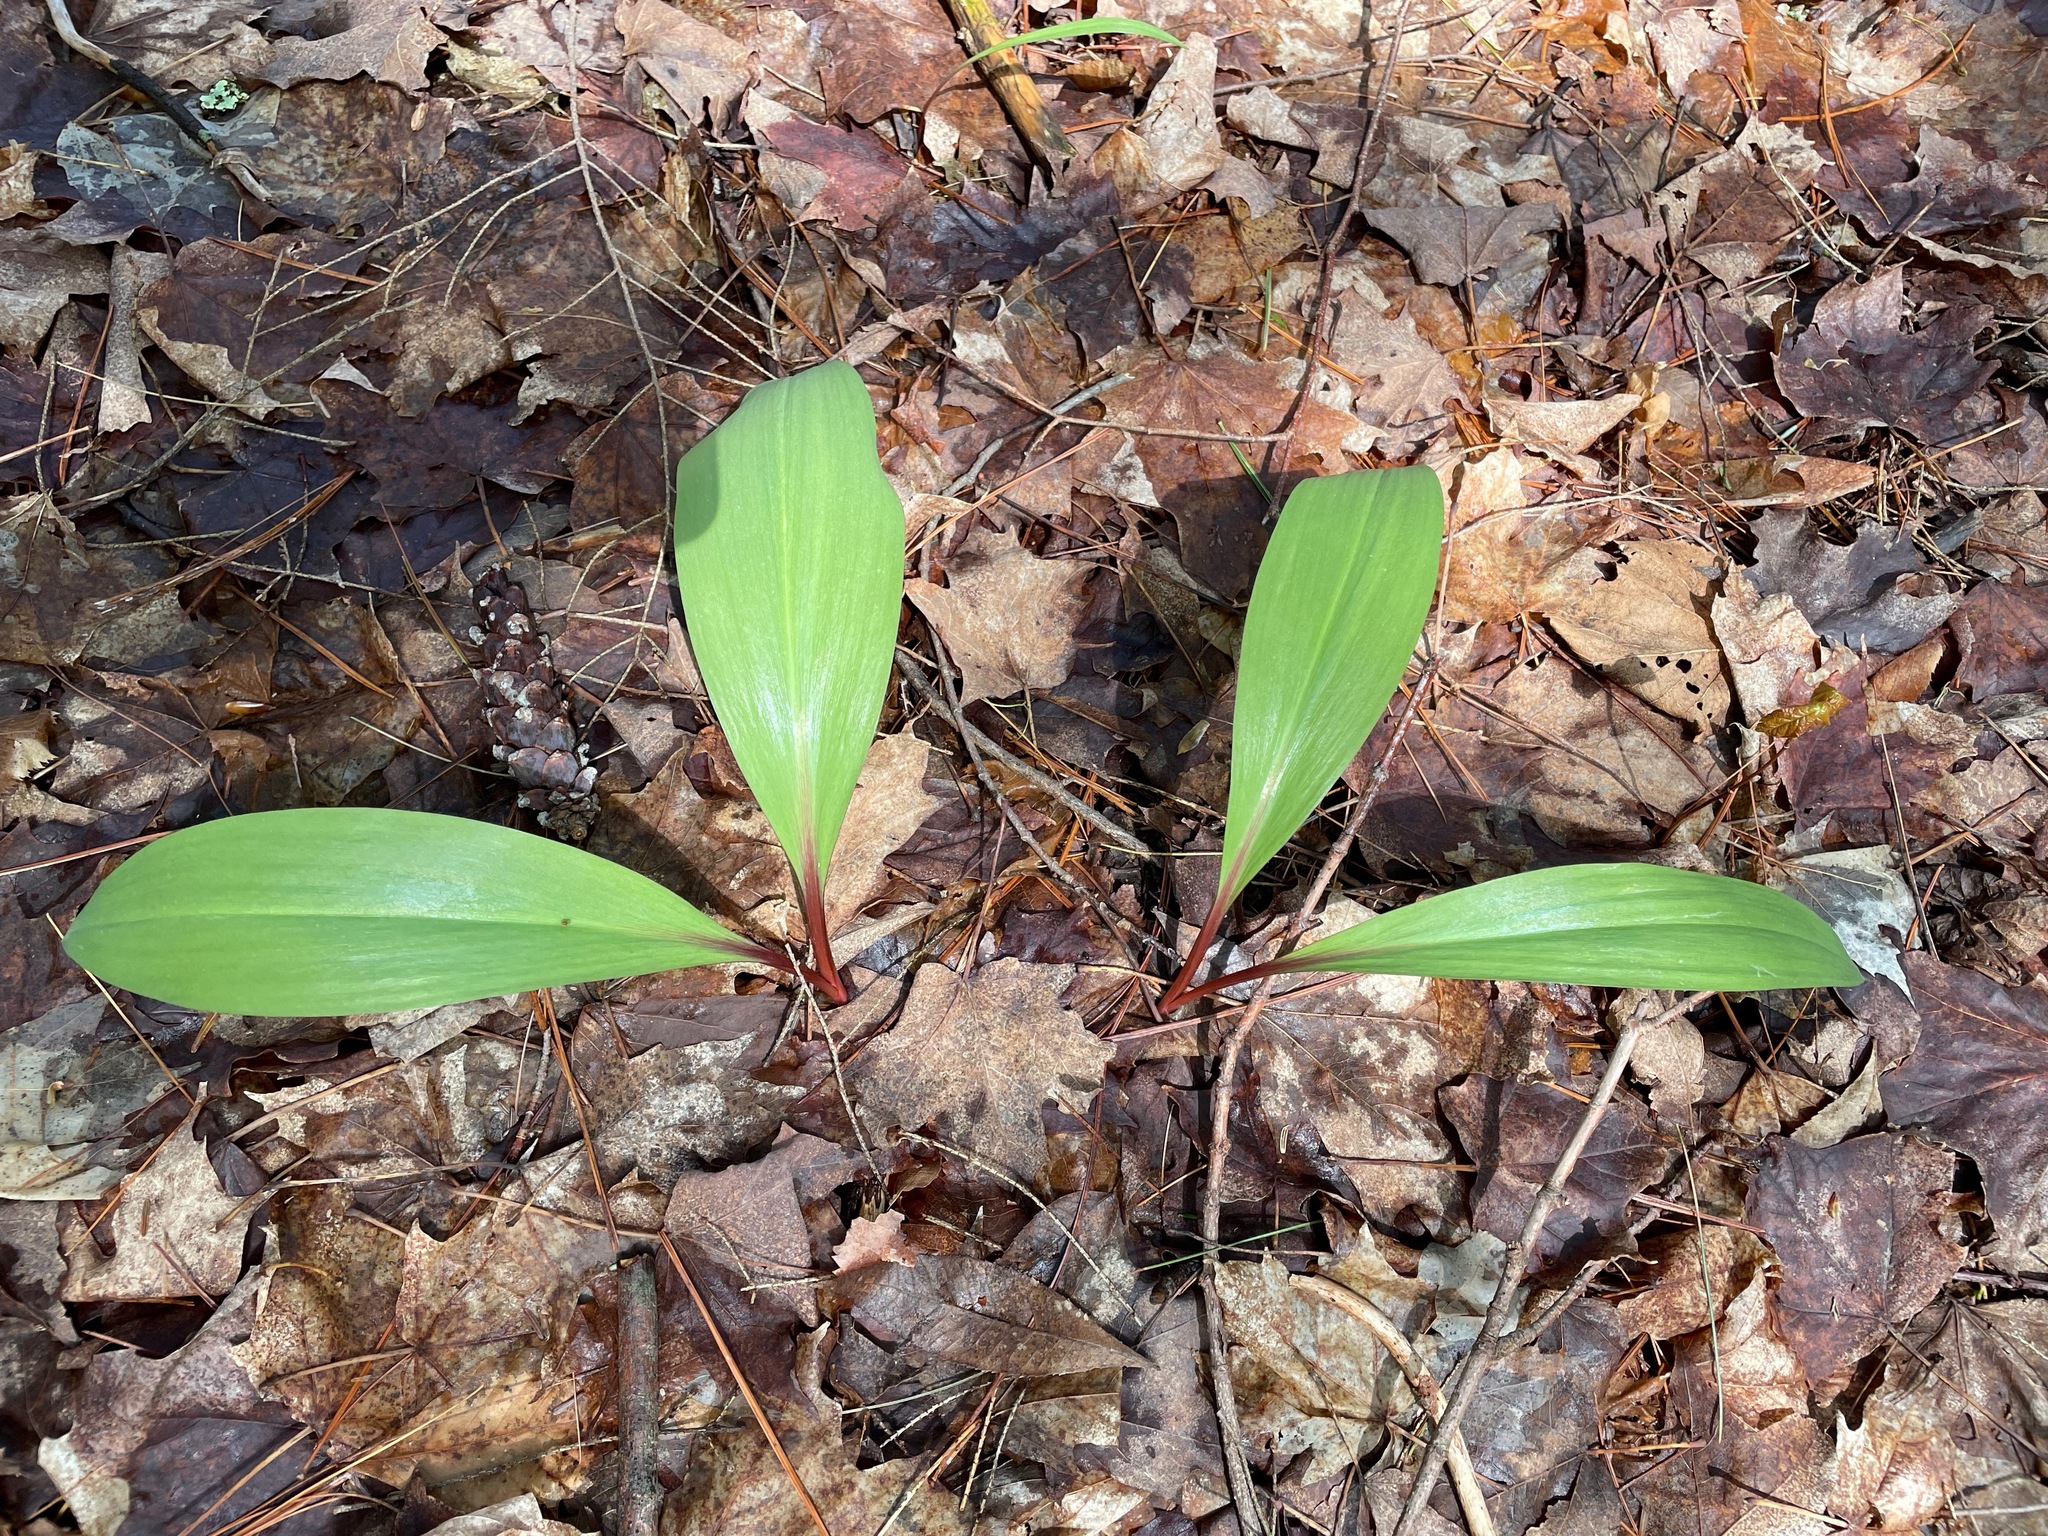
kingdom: Plantae
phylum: Tracheophyta
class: Liliopsida
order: Asparagales
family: Amaryllidaceae
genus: Allium
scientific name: Allium tricoccum
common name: Ramp
